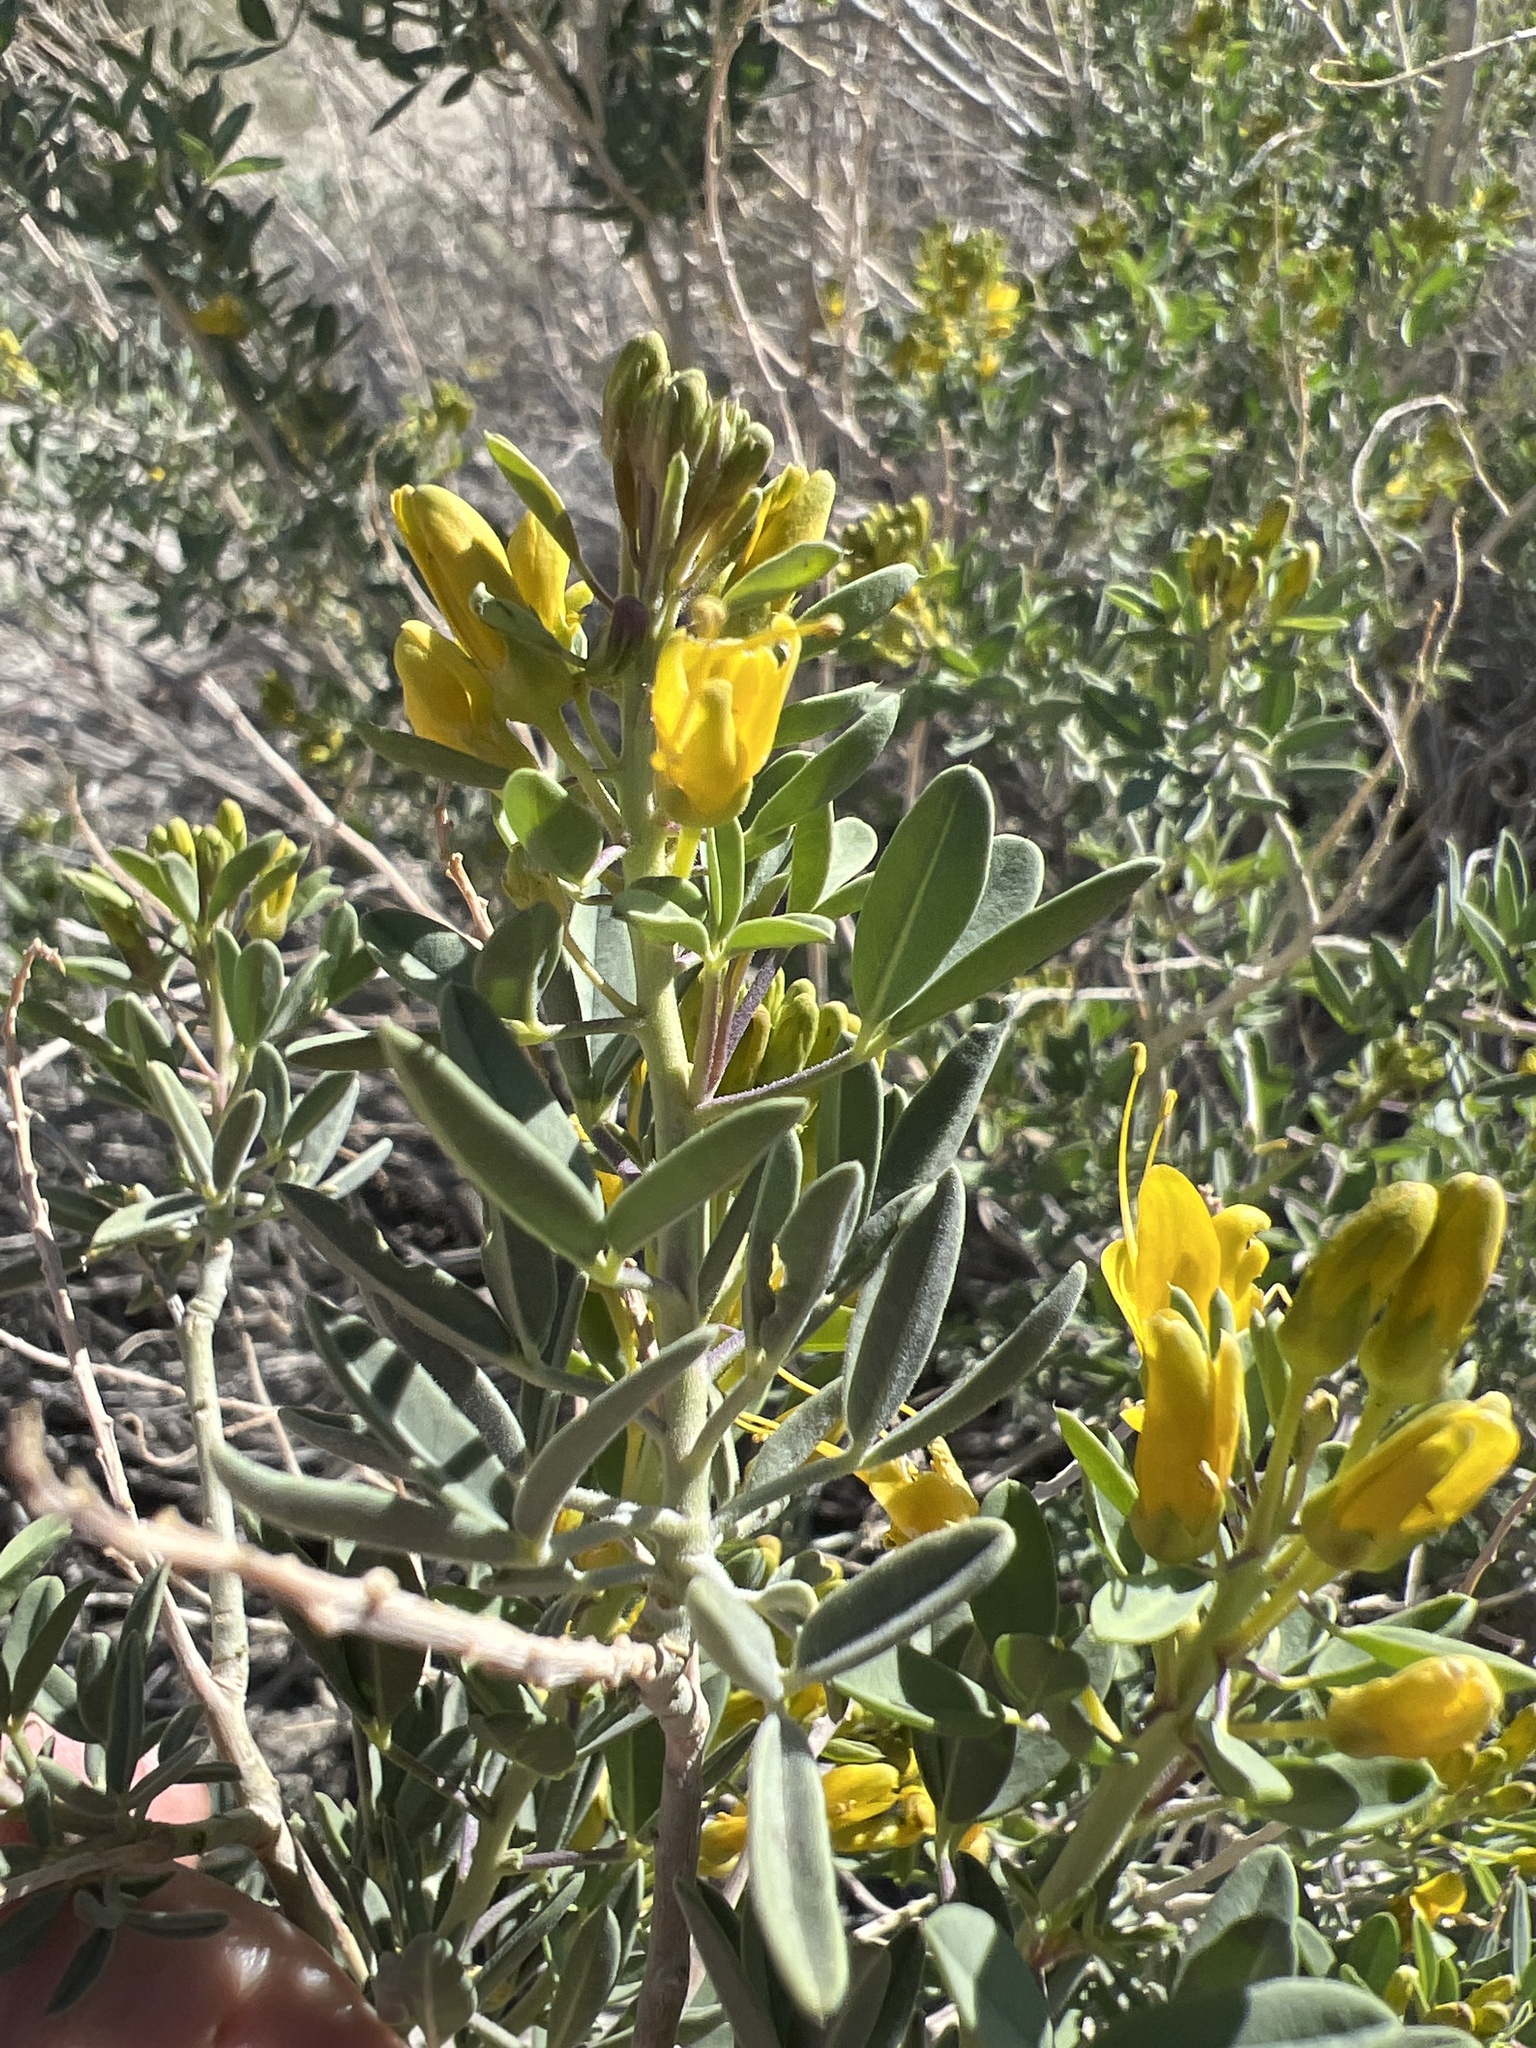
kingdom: Plantae
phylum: Tracheophyta
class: Magnoliopsida
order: Brassicales
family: Cleomaceae
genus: Cleomella
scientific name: Cleomella arborea
